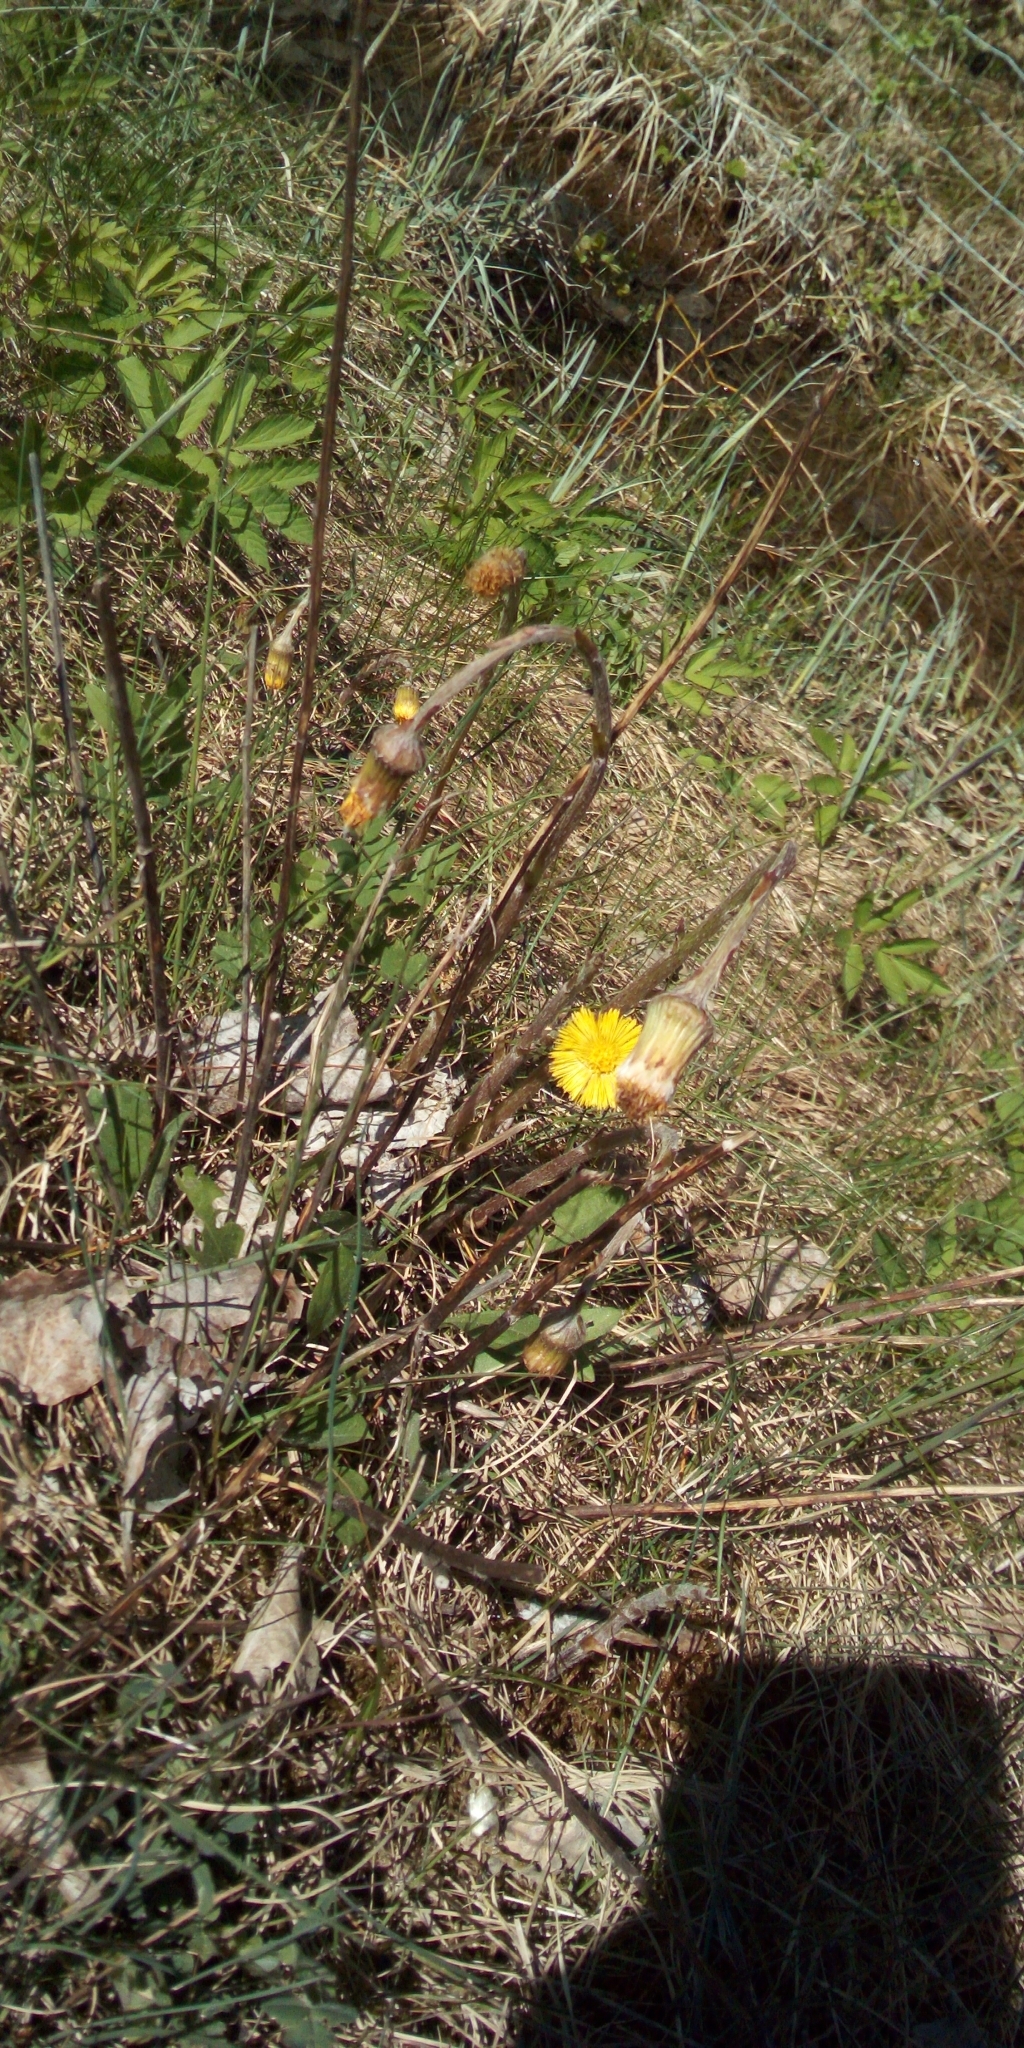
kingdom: Plantae
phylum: Tracheophyta
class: Magnoliopsida
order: Asterales
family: Asteraceae
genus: Tussilago
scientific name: Tussilago farfara
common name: Coltsfoot
